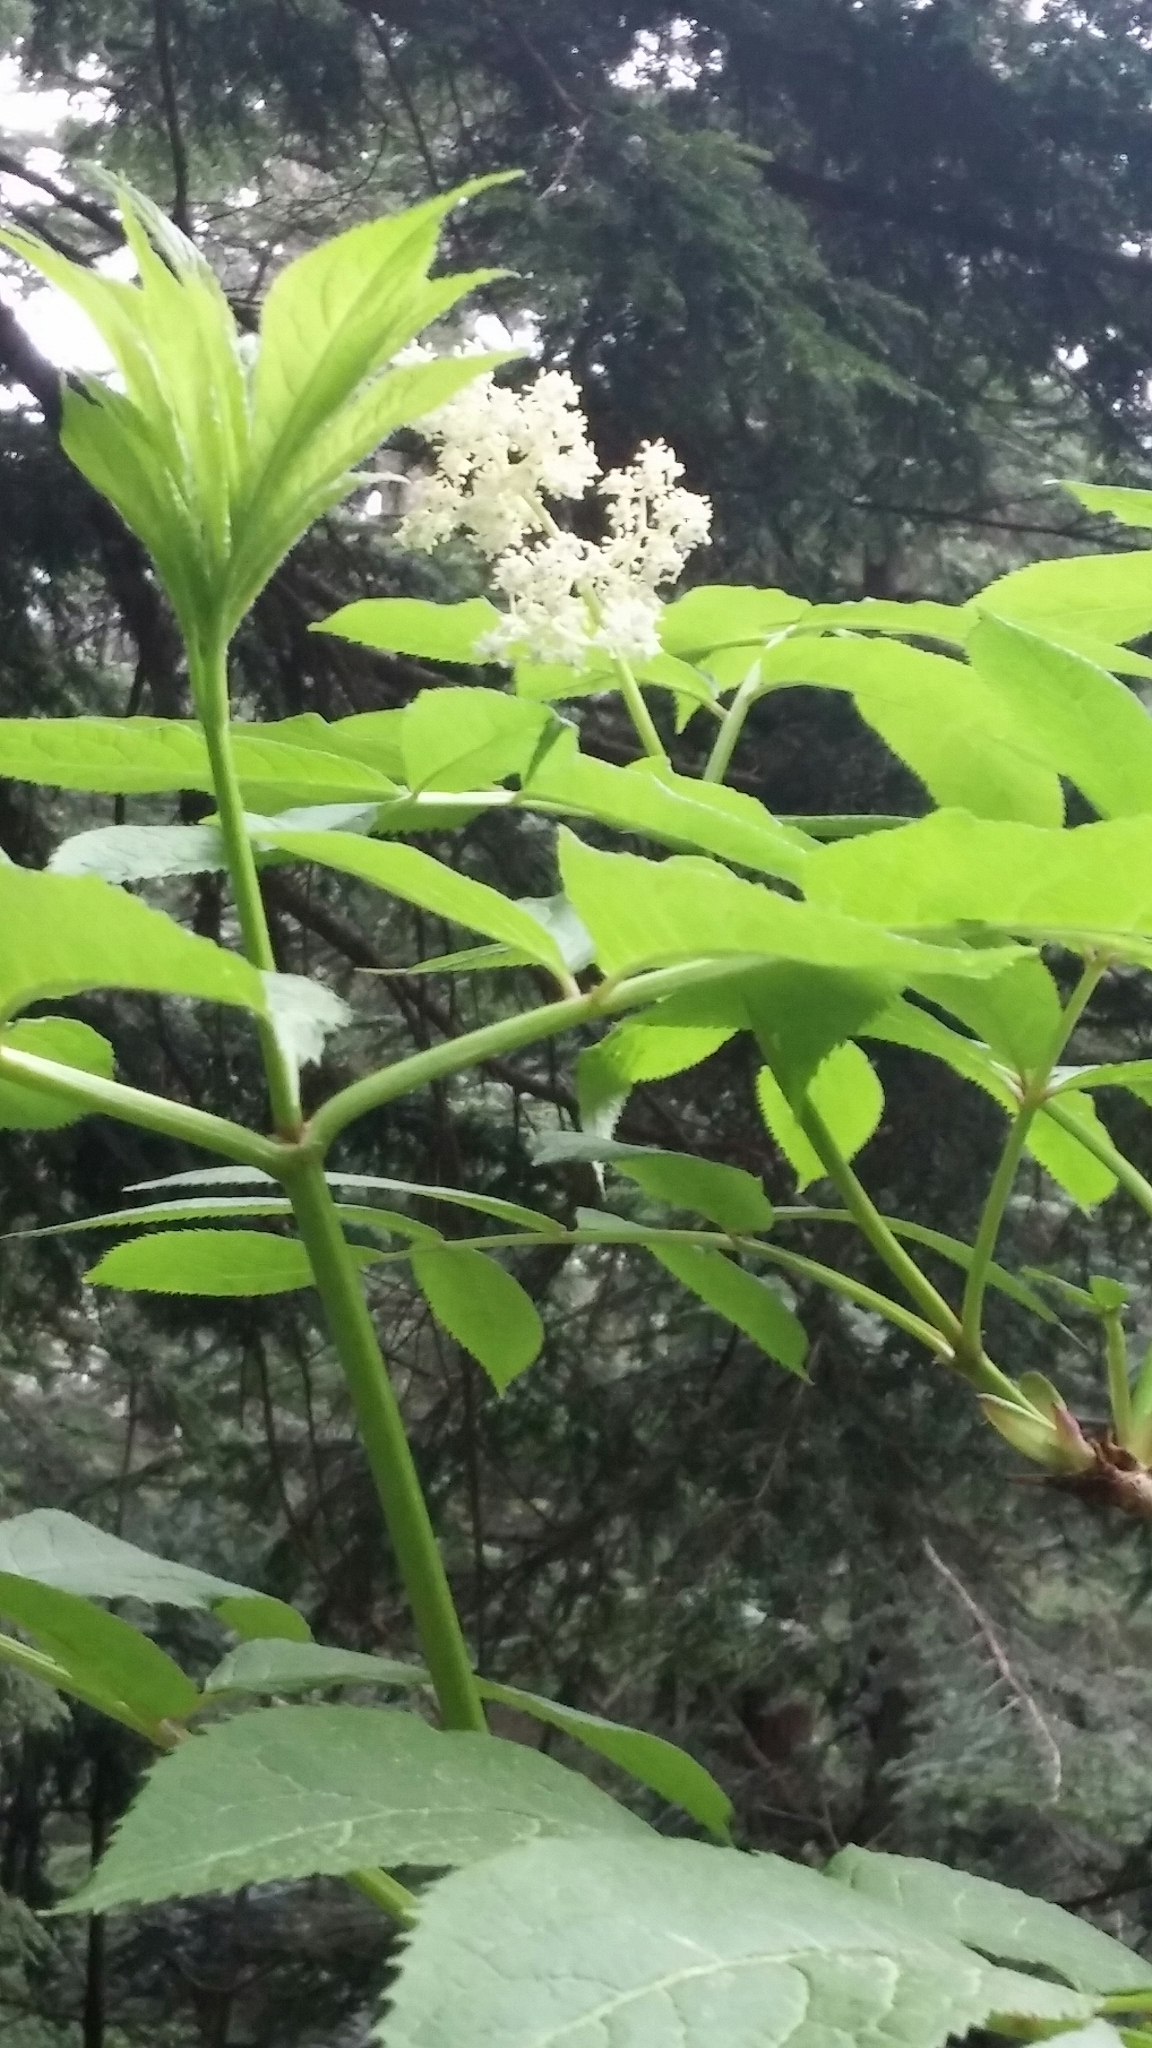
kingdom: Plantae
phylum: Tracheophyta
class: Magnoliopsida
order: Dipsacales
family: Viburnaceae
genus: Sambucus
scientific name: Sambucus racemosa
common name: Red-berried elder
